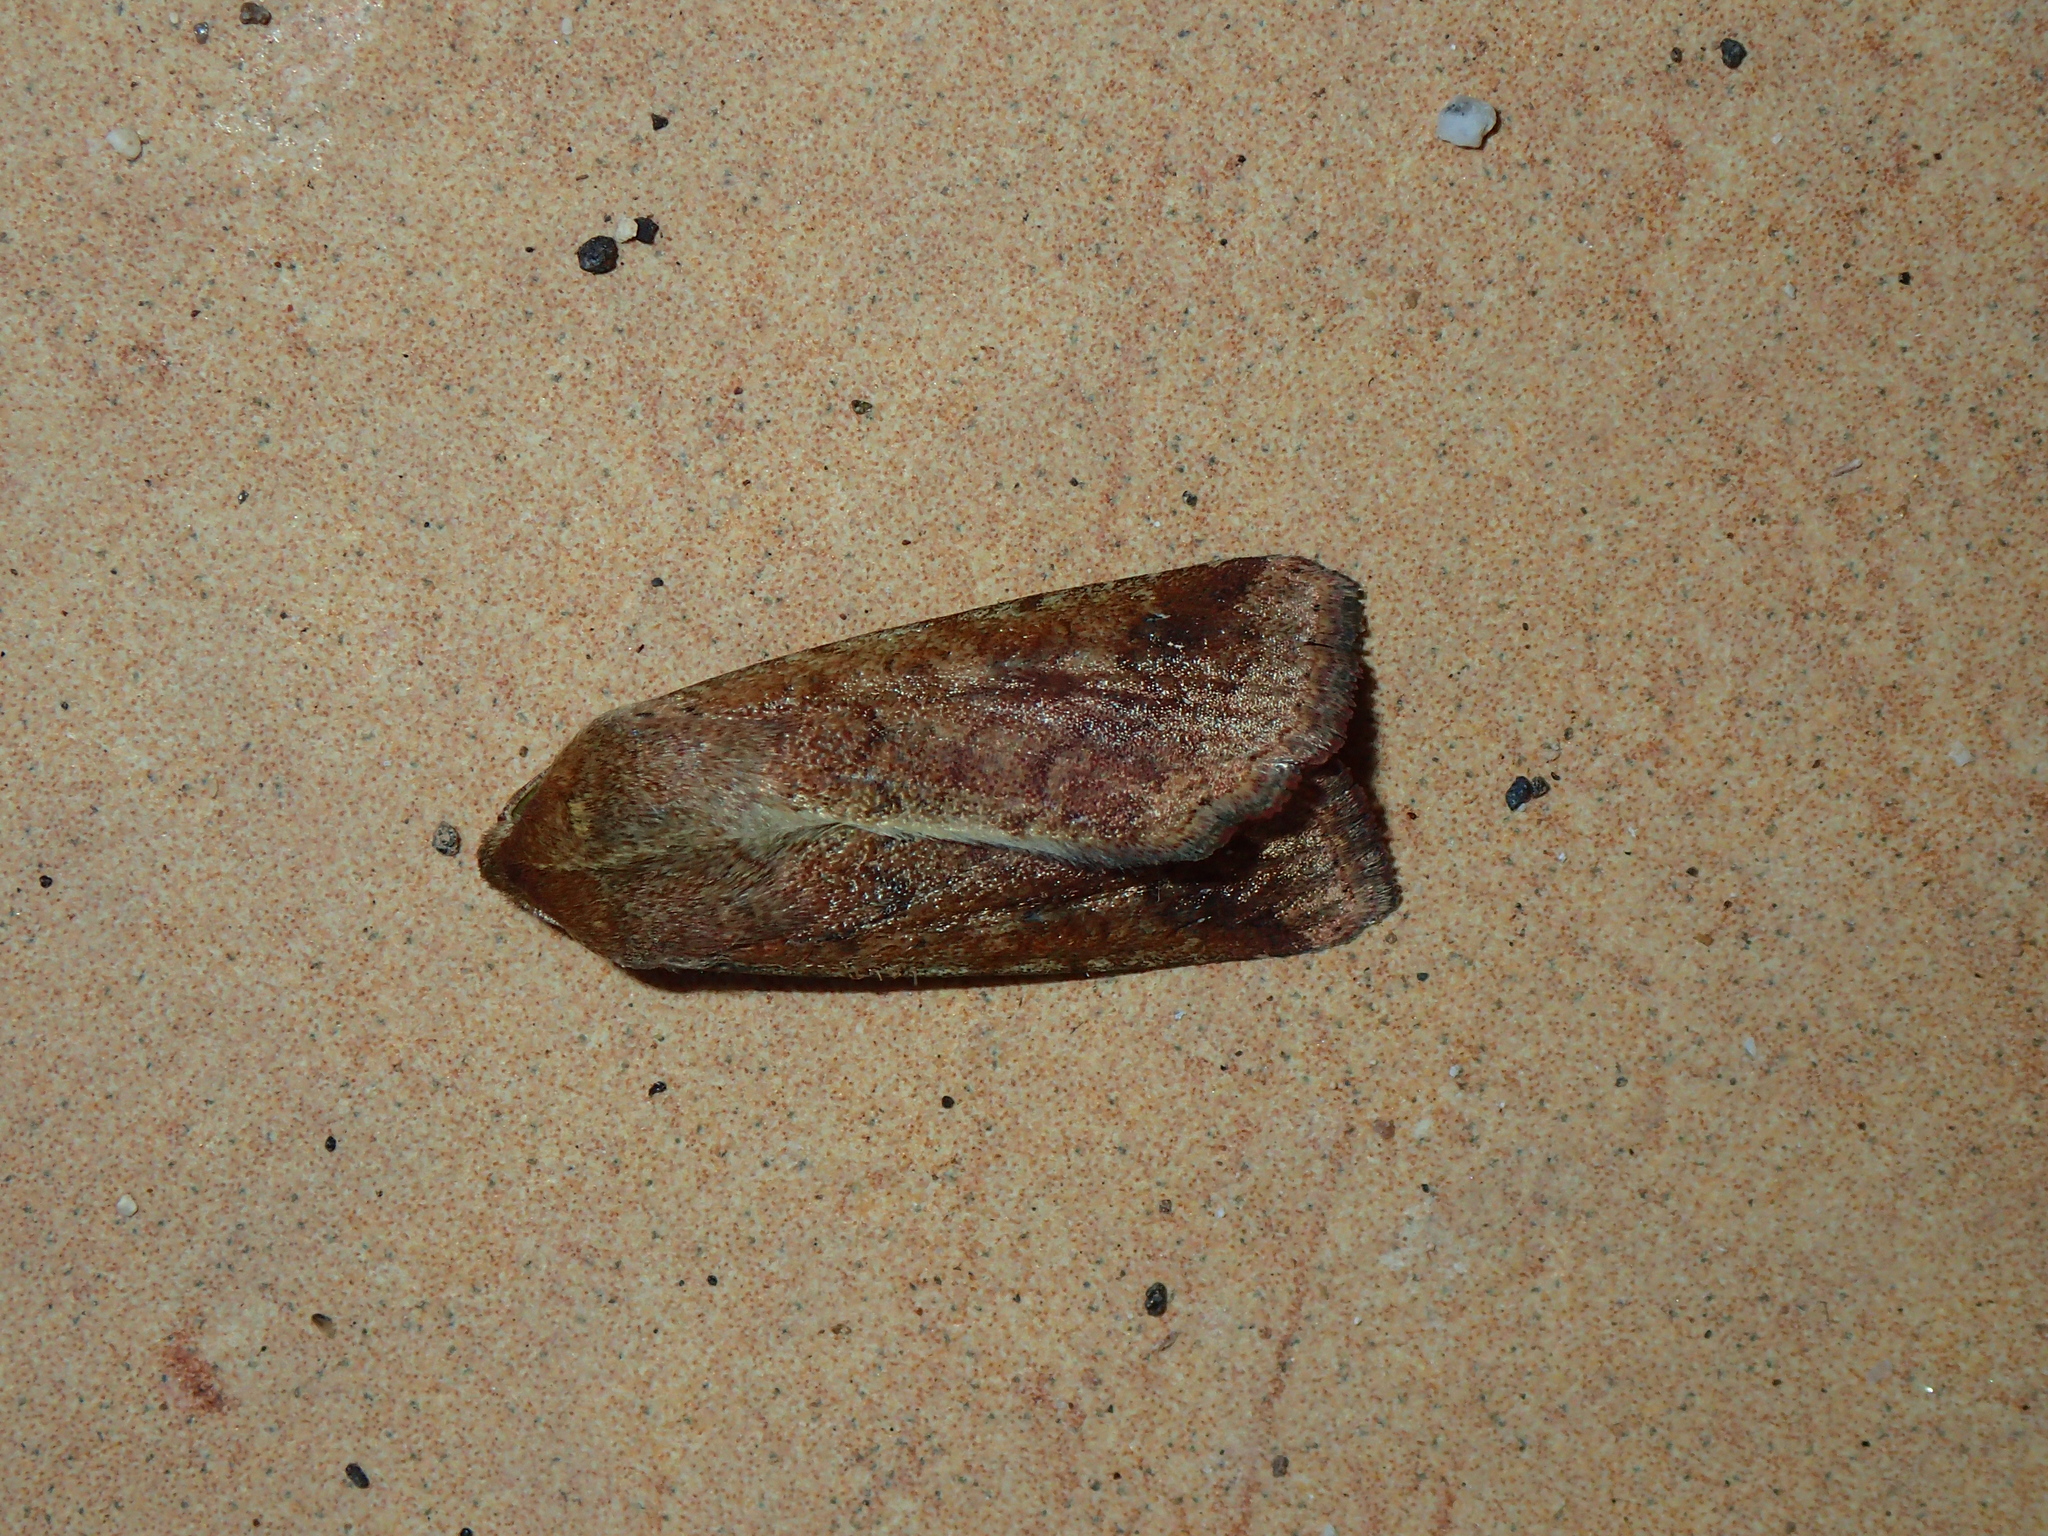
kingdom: Animalia
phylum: Arthropoda
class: Insecta
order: Lepidoptera
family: Noctuidae
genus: Helicoverpa
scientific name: Helicoverpa armigera
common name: Cotton bollworm
